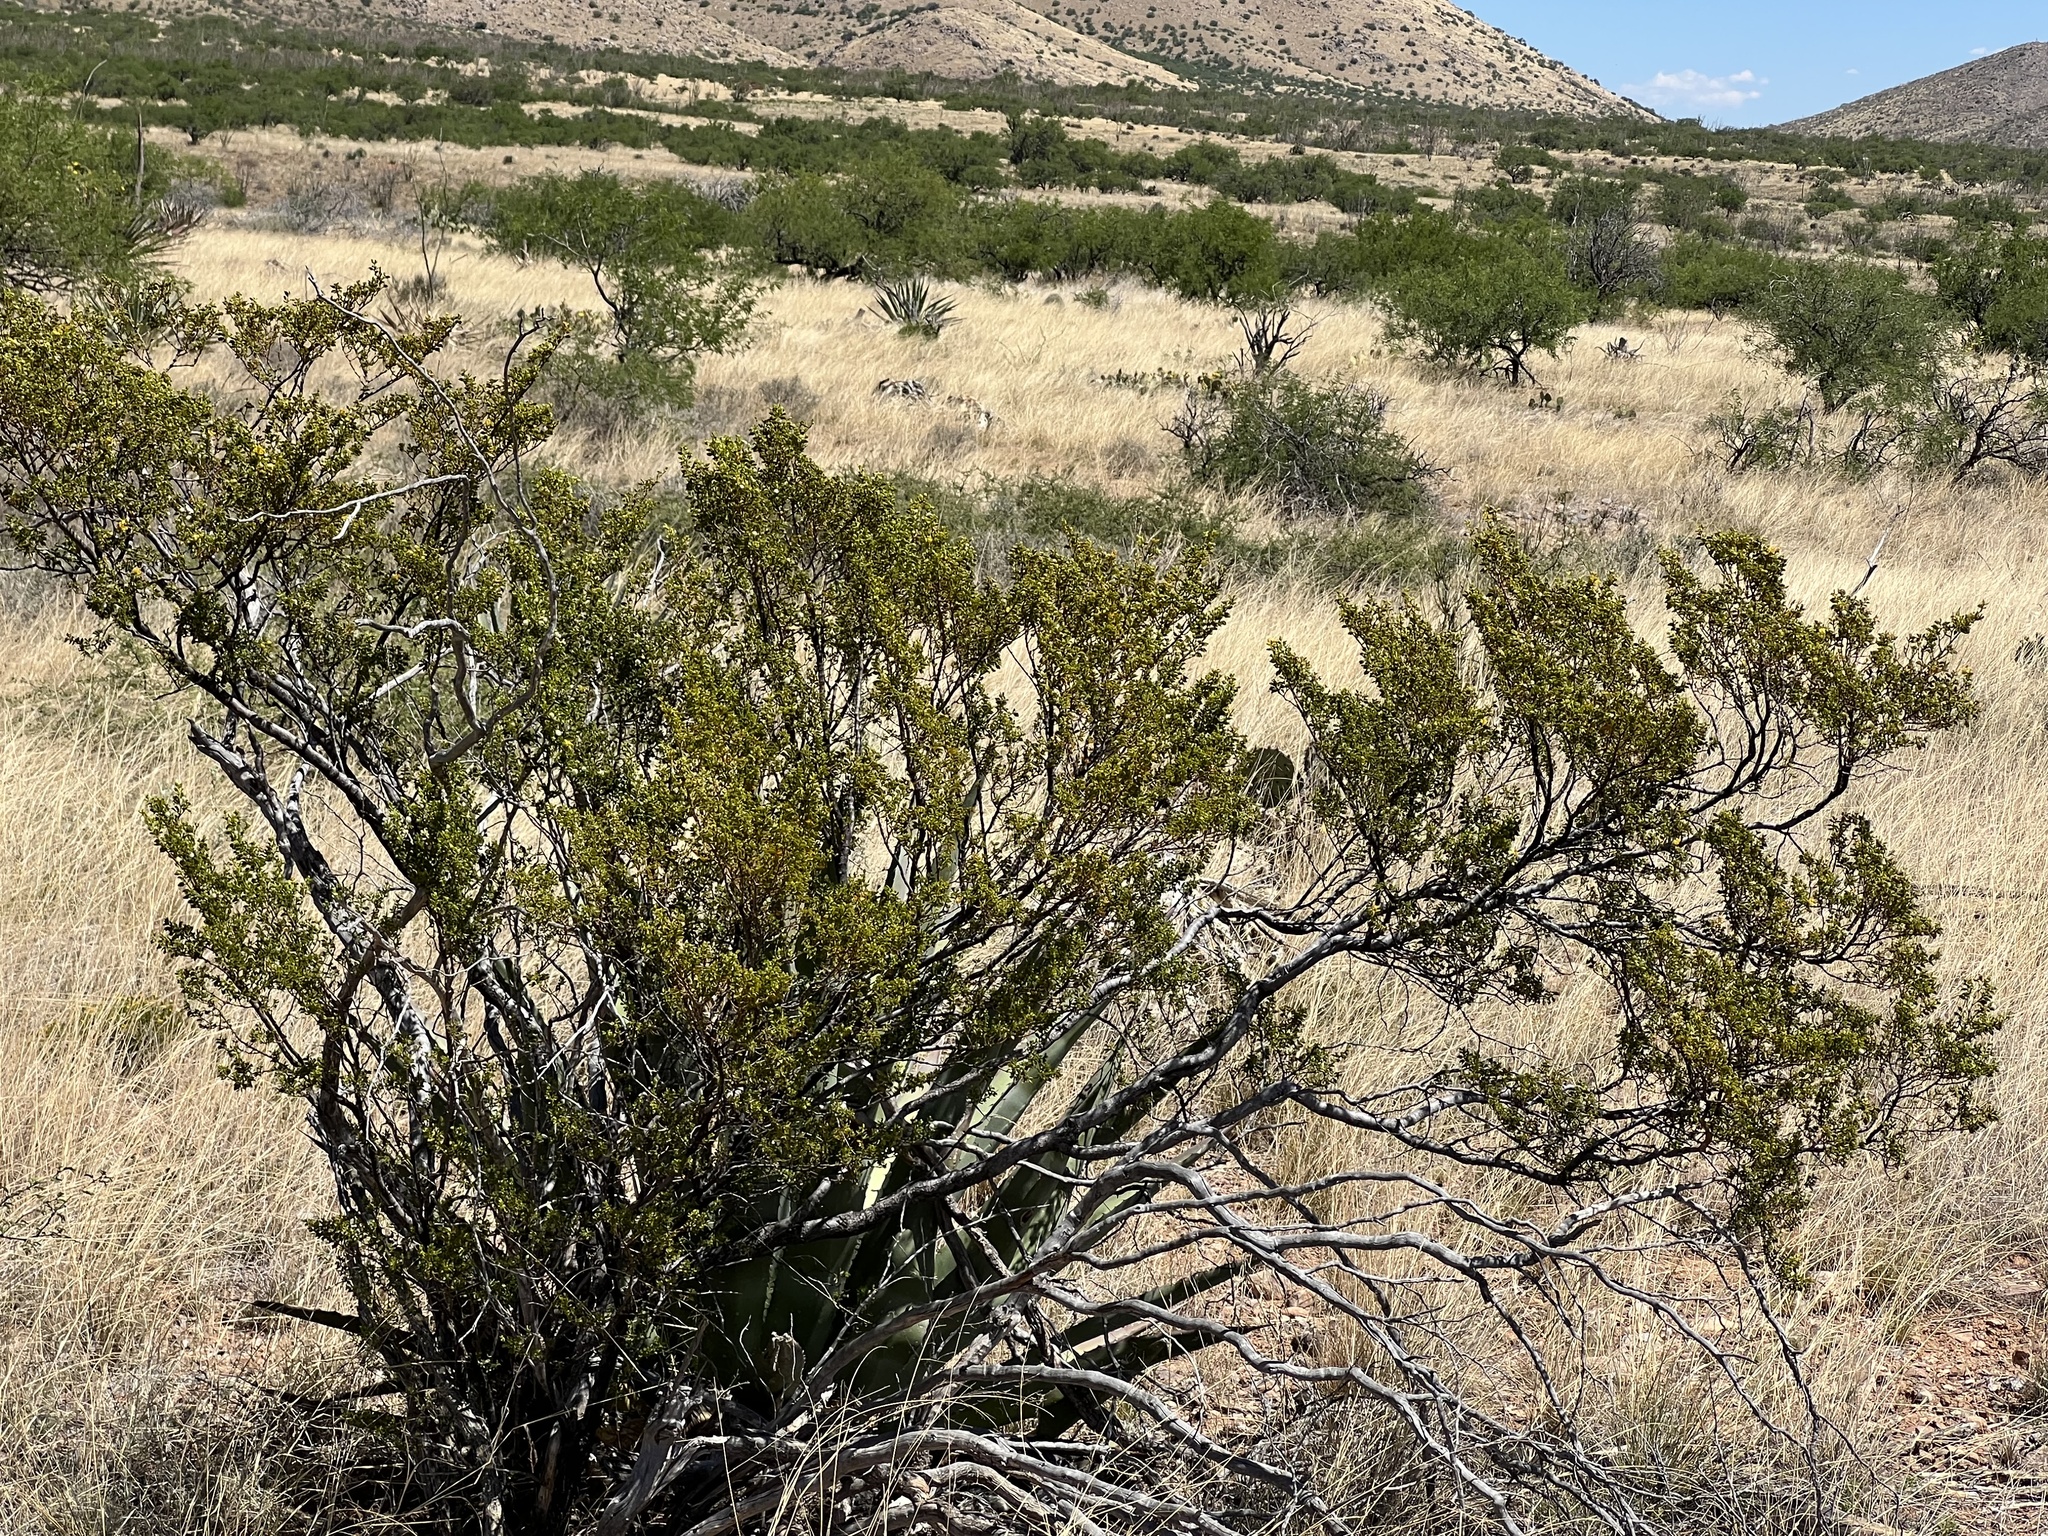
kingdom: Plantae
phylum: Tracheophyta
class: Magnoliopsida
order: Zygophyllales
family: Zygophyllaceae
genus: Larrea
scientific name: Larrea tridentata
